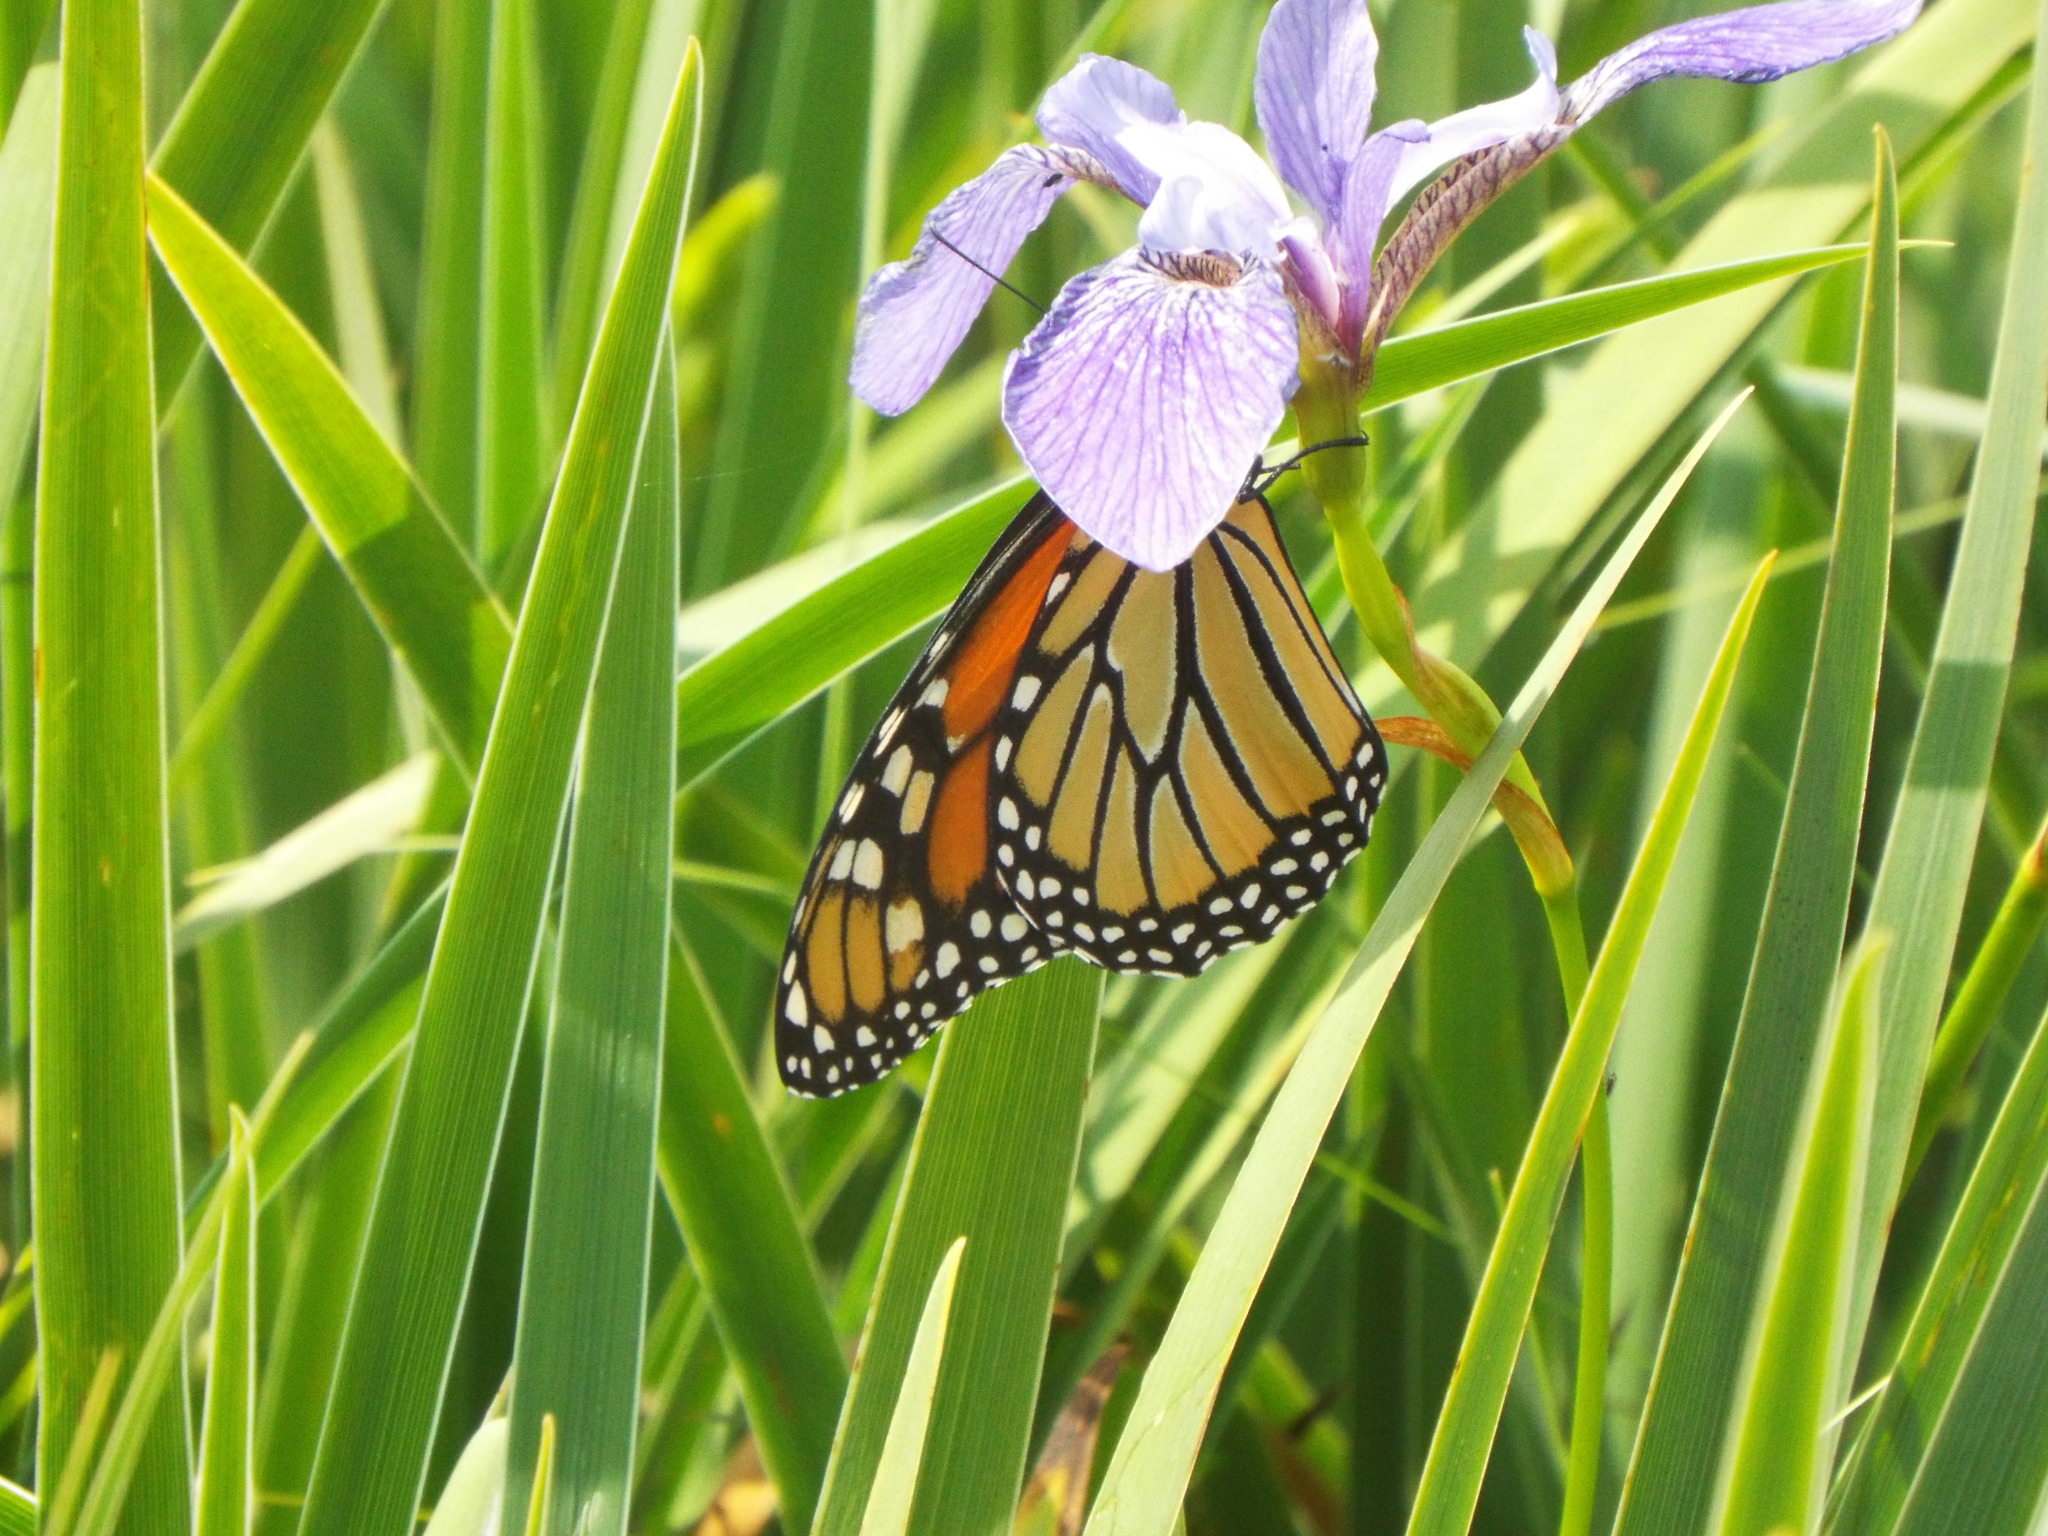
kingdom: Animalia
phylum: Arthropoda
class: Insecta
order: Lepidoptera
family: Nymphalidae
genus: Danaus
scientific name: Danaus plexippus
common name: Monarch
